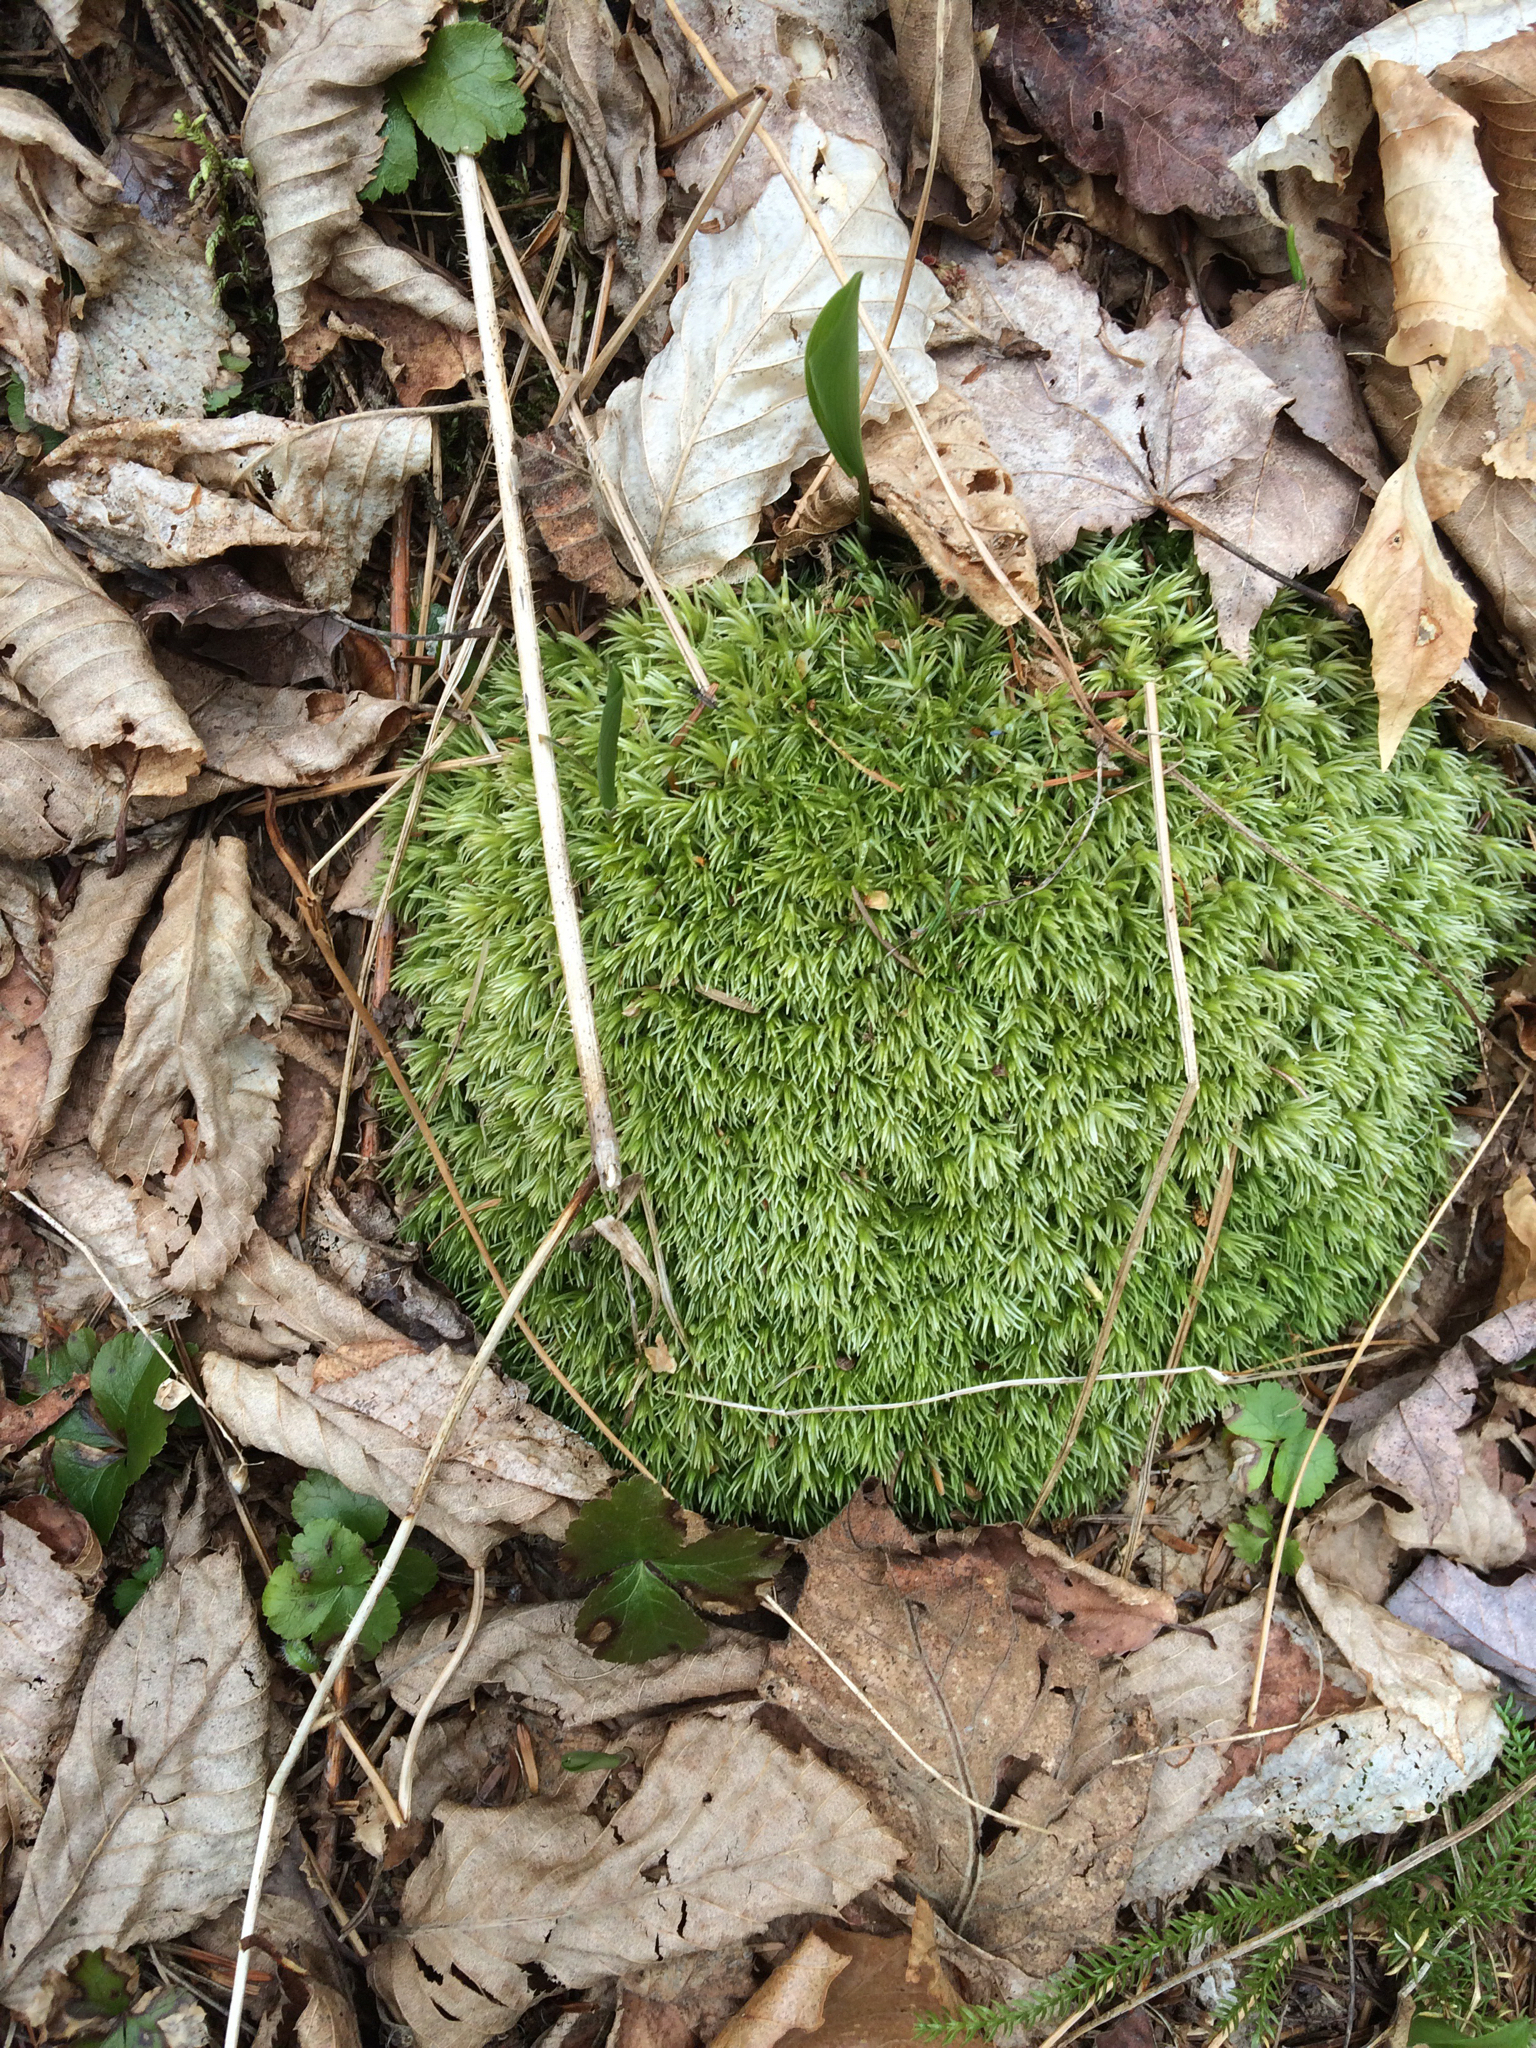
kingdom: Plantae
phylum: Bryophyta
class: Bryopsida
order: Dicranales
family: Leucobryaceae
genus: Leucobryum
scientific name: Leucobryum glaucum
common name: Large white-moss
